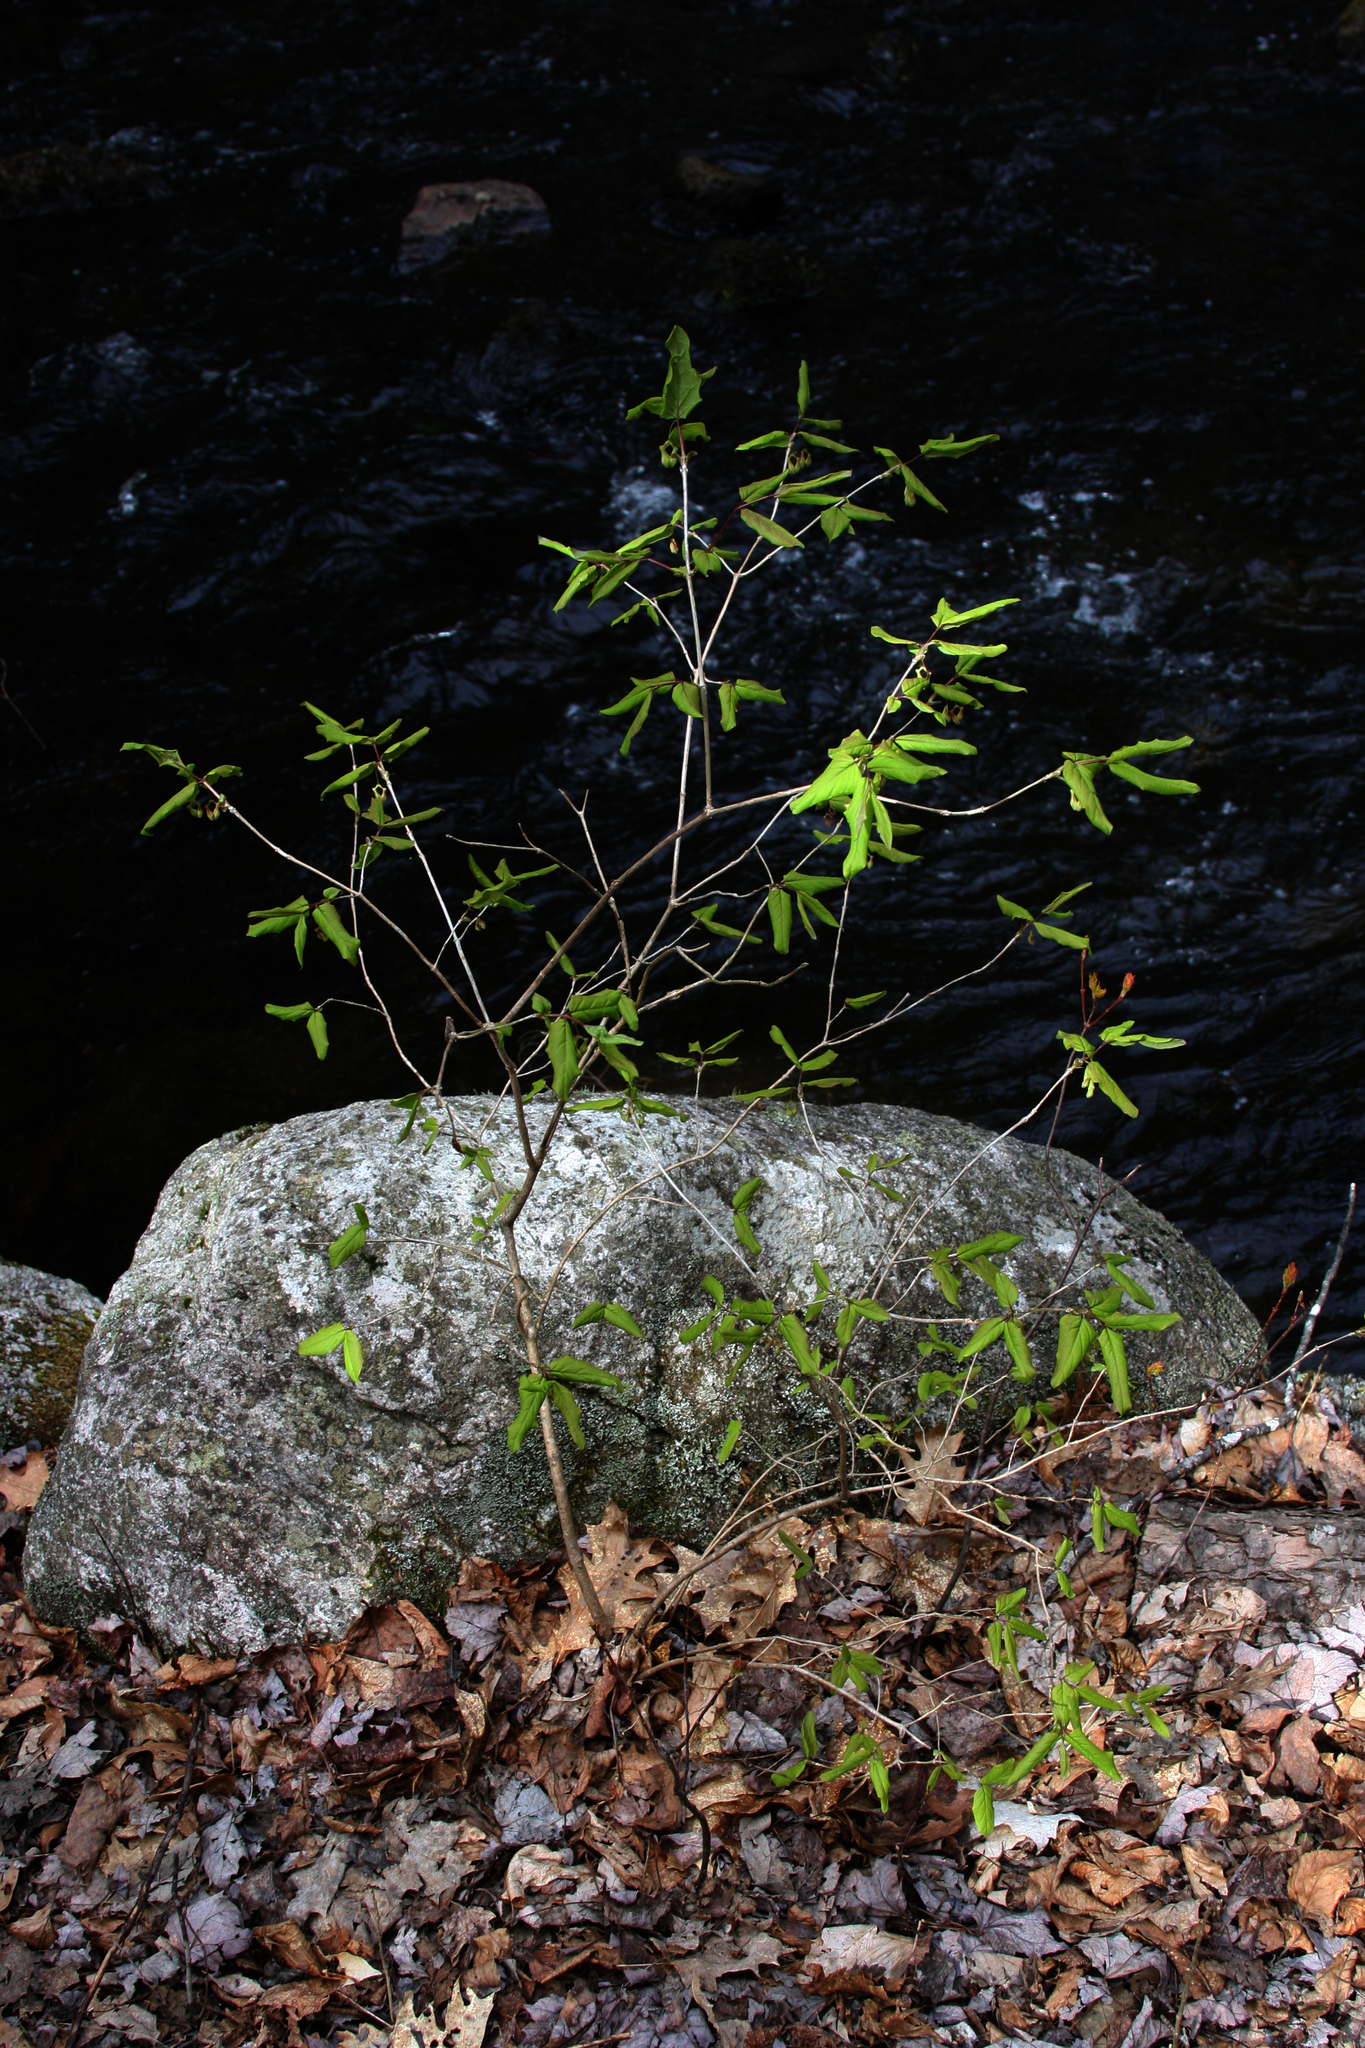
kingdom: Plantae
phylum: Tracheophyta
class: Magnoliopsida
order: Dipsacales
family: Caprifoliaceae
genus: Lonicera
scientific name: Lonicera canadensis
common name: American fly-honeysuckle
